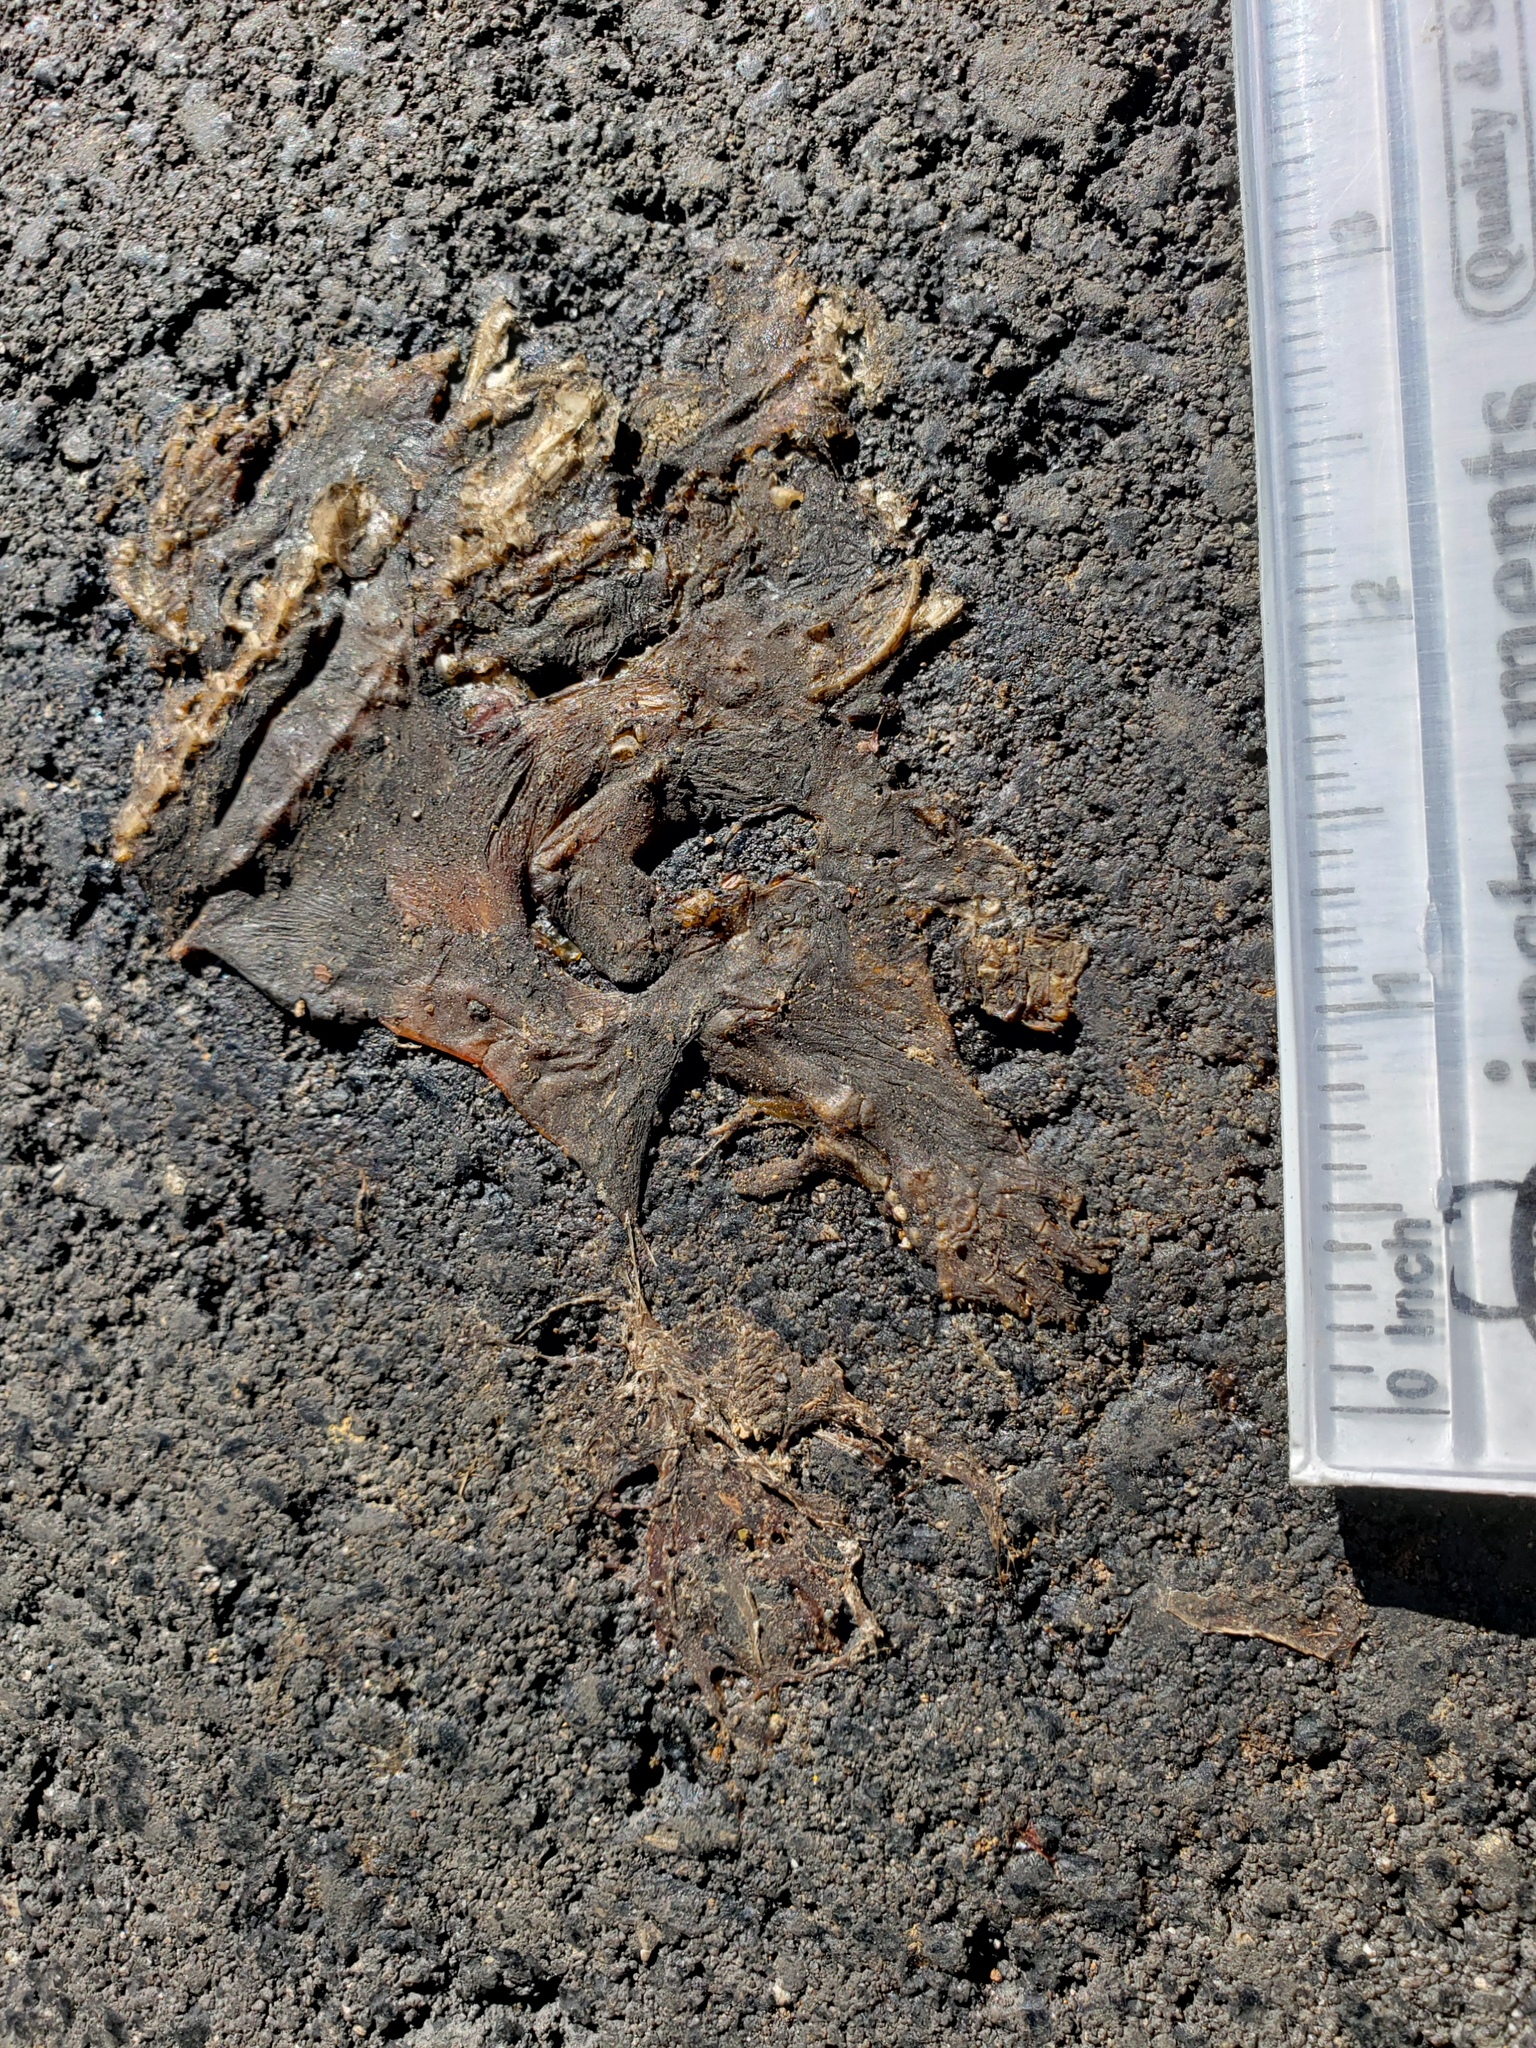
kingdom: Animalia
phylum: Chordata
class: Amphibia
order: Caudata
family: Salamandridae
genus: Taricha
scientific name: Taricha
